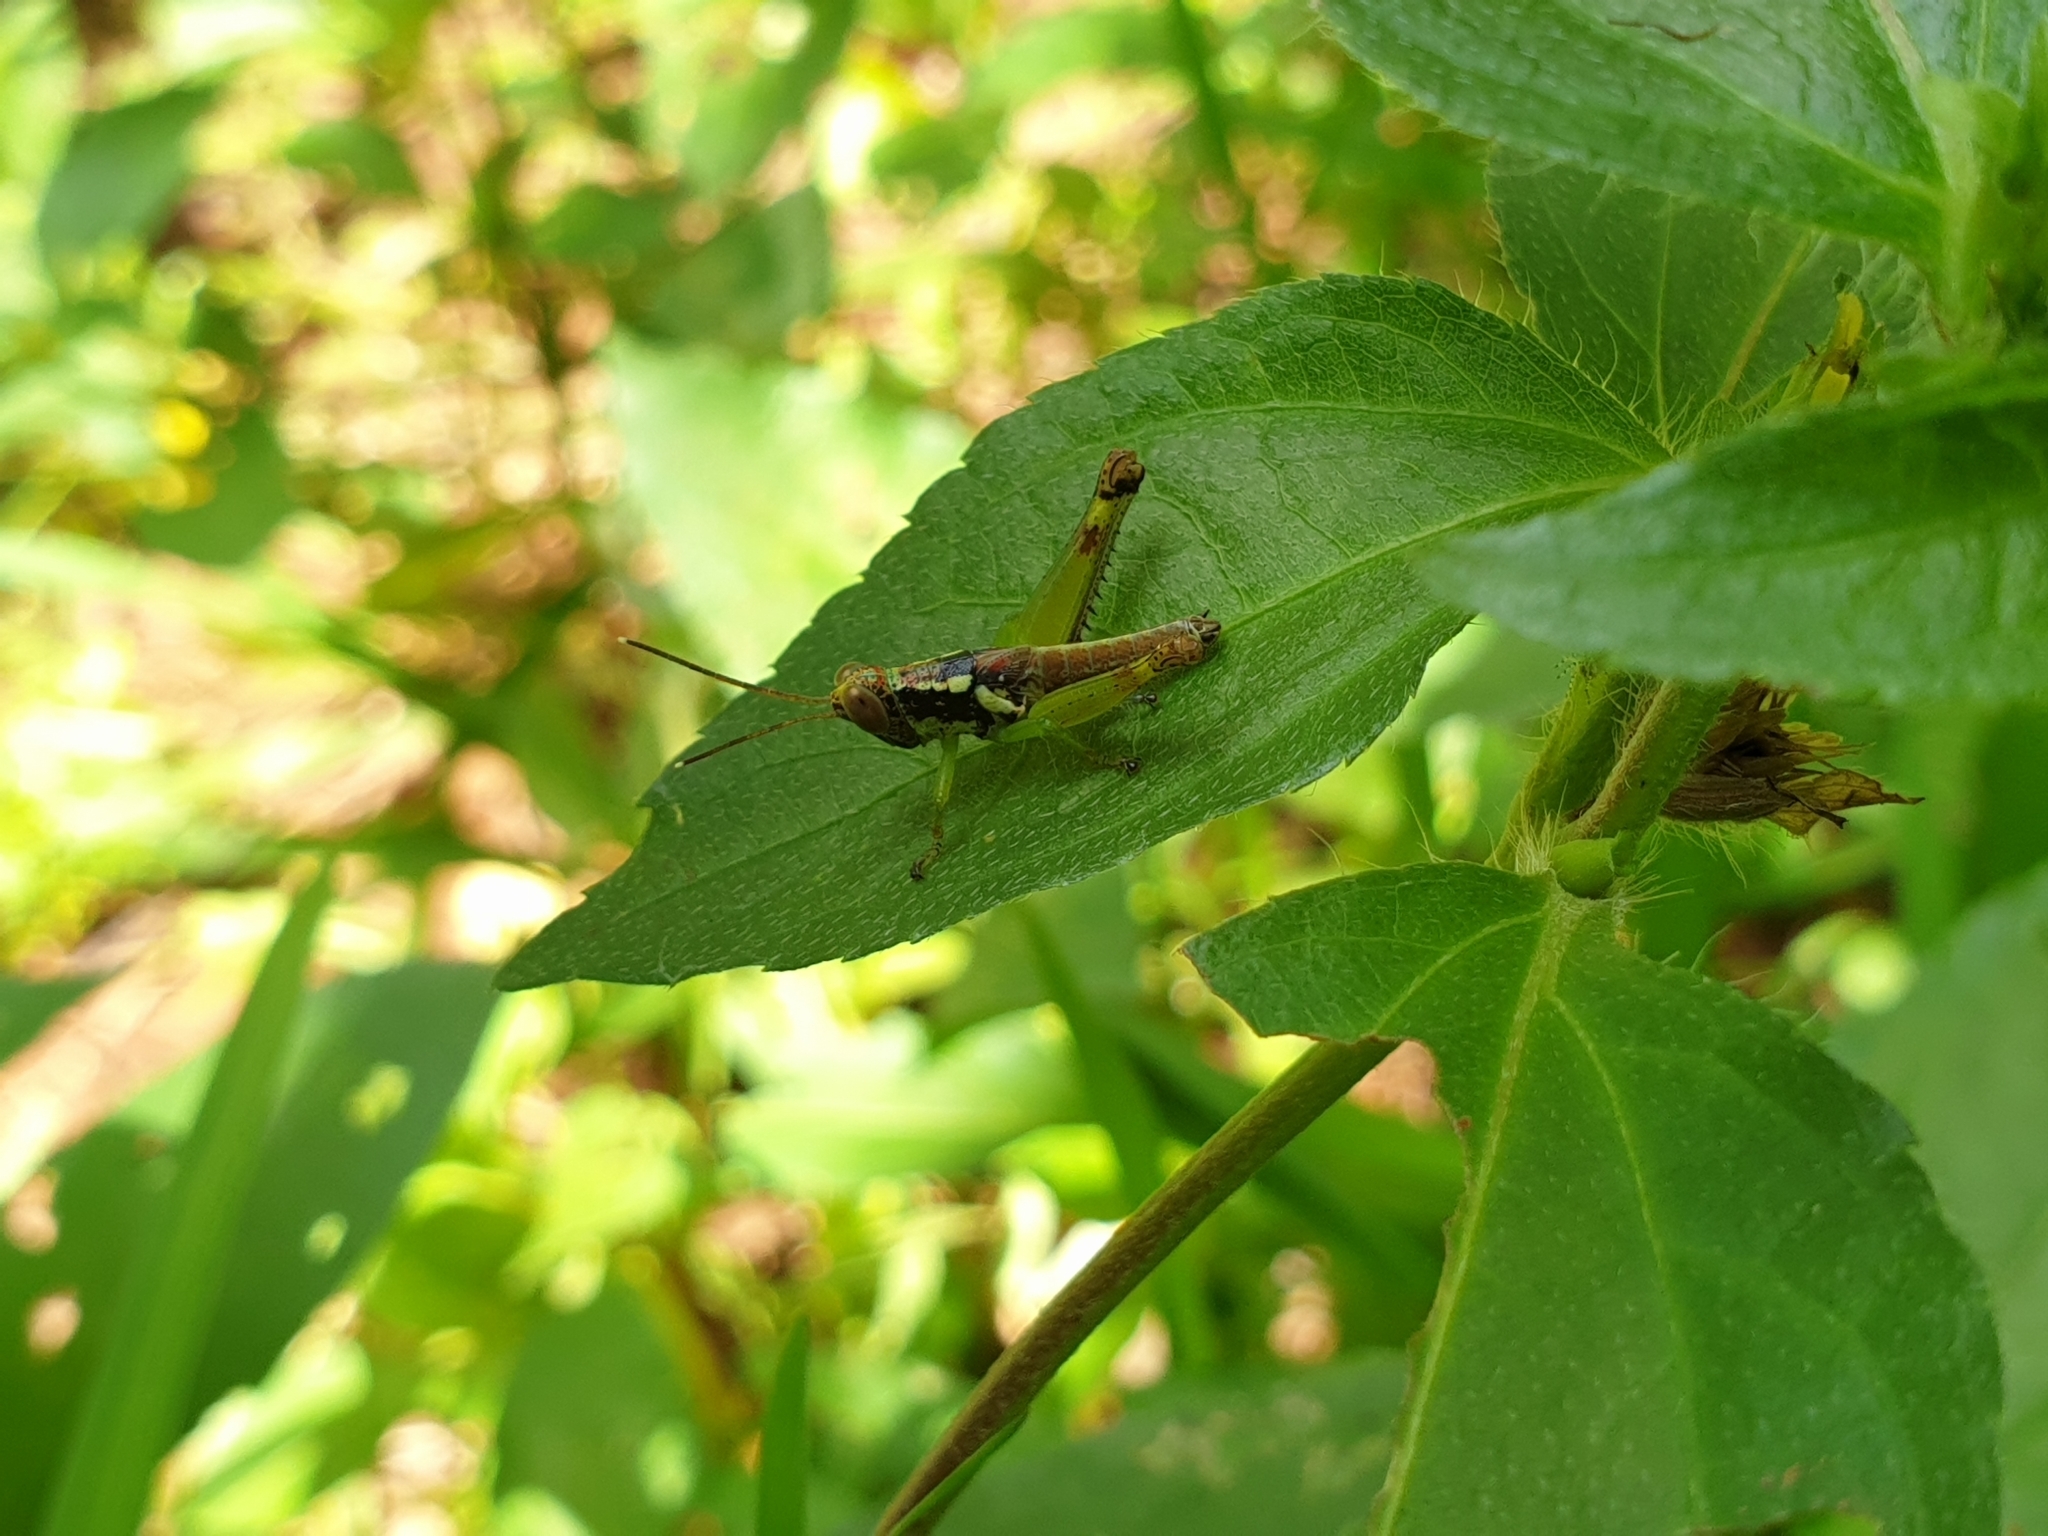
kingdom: Animalia
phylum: Arthropoda
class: Insecta
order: Orthoptera
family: Acrididae
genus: Pirithoicus
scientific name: Pirithoicus ophthalmicus
